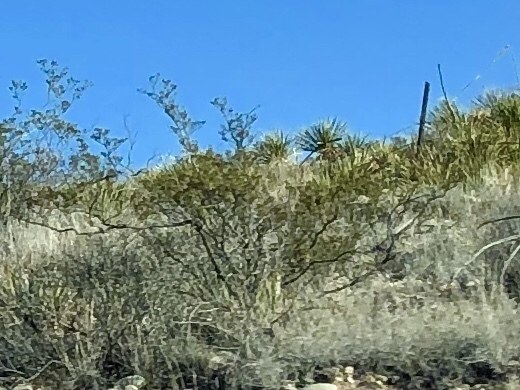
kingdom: Plantae
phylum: Tracheophyta
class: Magnoliopsida
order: Zygophyllales
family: Zygophyllaceae
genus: Larrea
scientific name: Larrea tridentata
